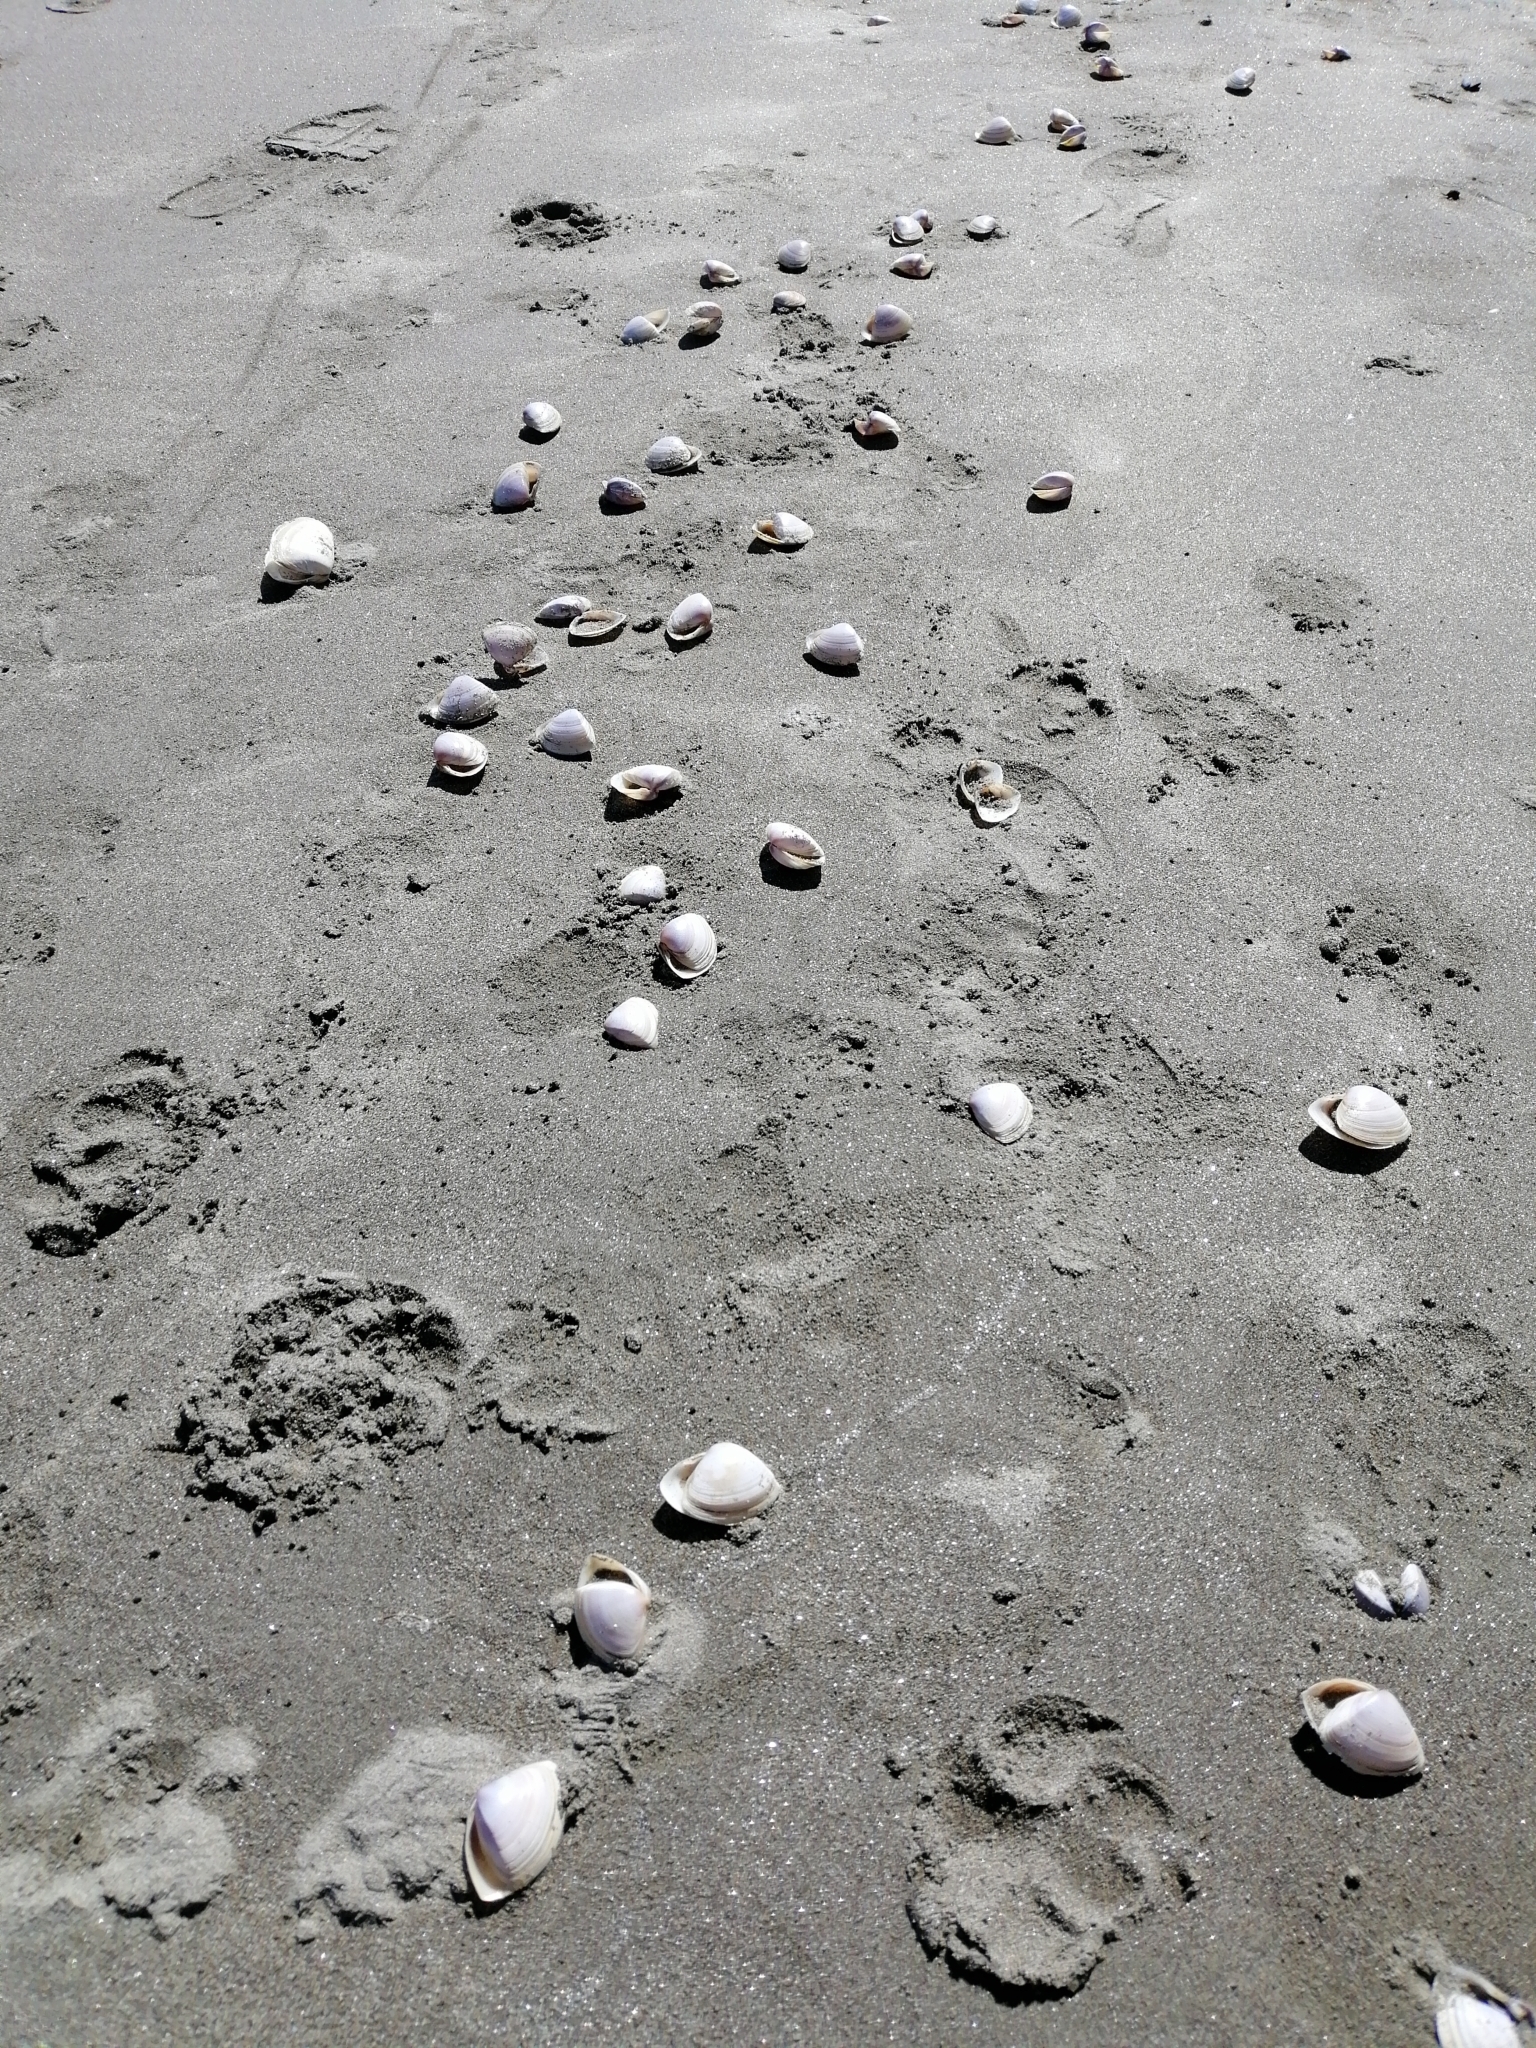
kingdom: Animalia
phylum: Mollusca
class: Bivalvia
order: Venerida
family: Mactridae
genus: Crassula
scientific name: Crassula aequilatera
